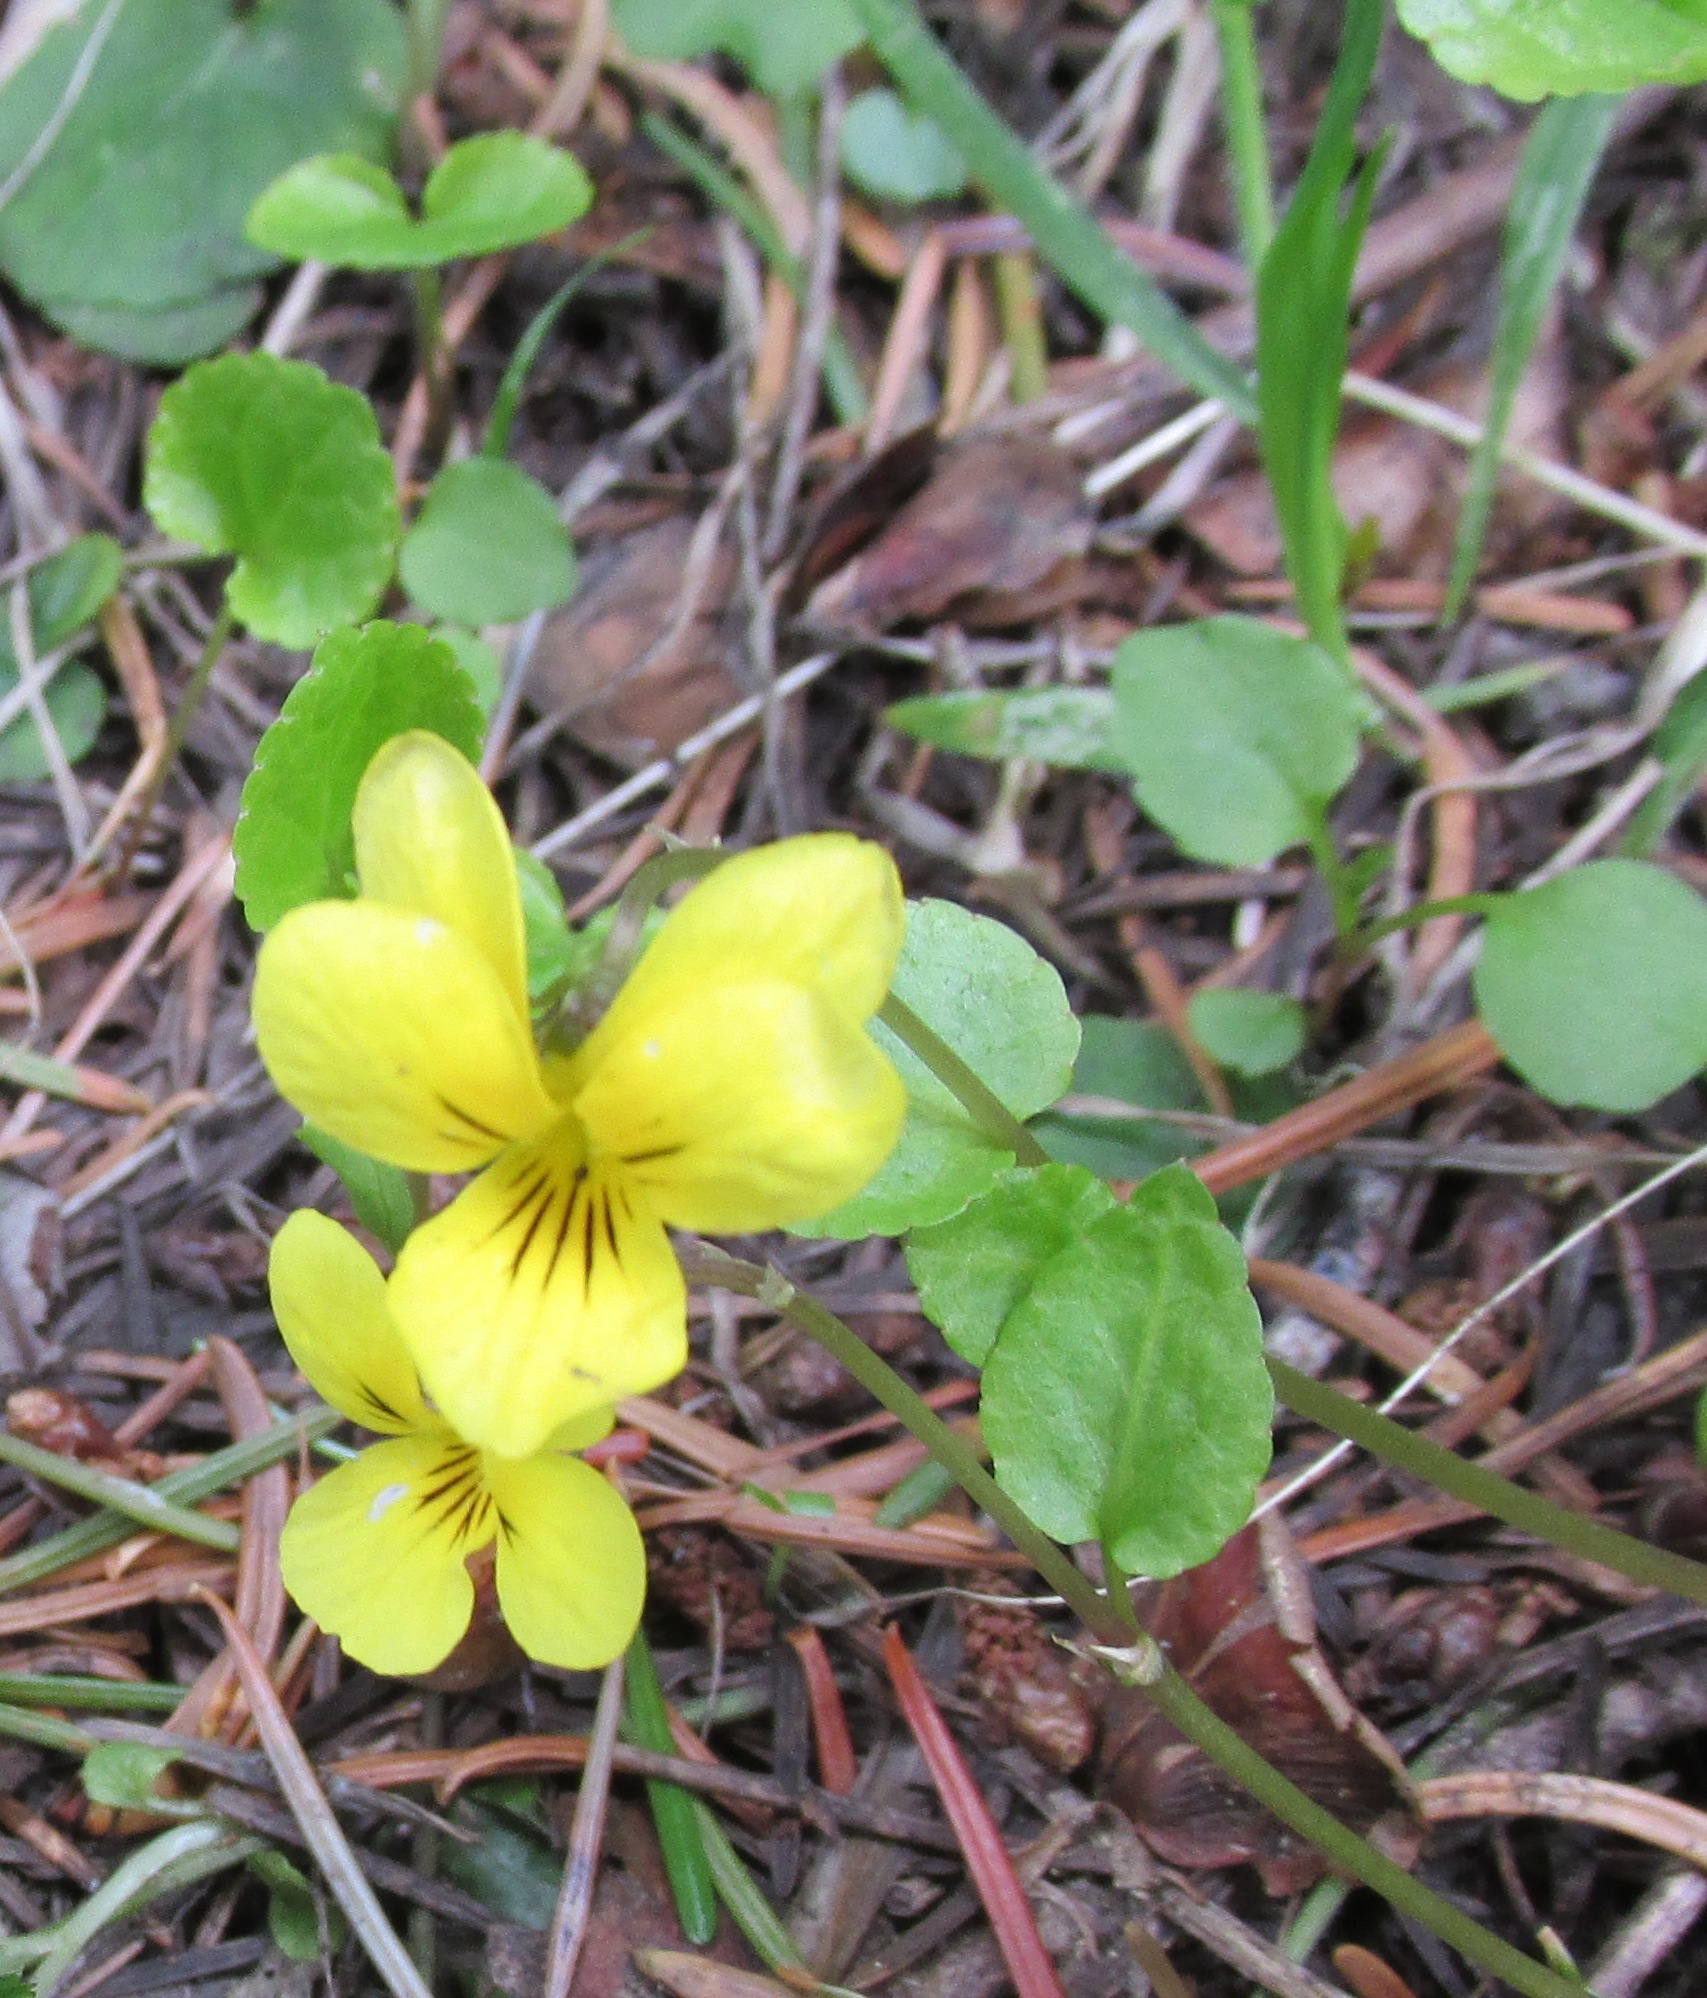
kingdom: Plantae
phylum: Tracheophyta
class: Magnoliopsida
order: Malpighiales
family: Violaceae
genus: Viola
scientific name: Viola sempervirens
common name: Evergreen violet
